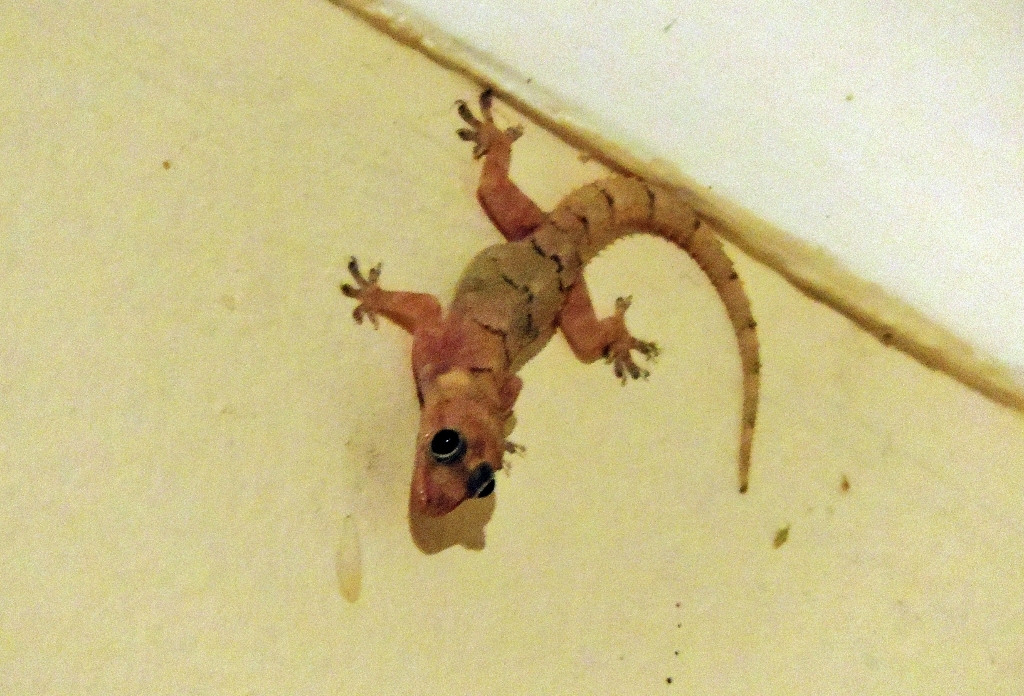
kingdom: Animalia
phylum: Chordata
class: Squamata
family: Gekkonidae
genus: Hemidactylus
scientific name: Hemidactylus mabouia
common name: House gecko
